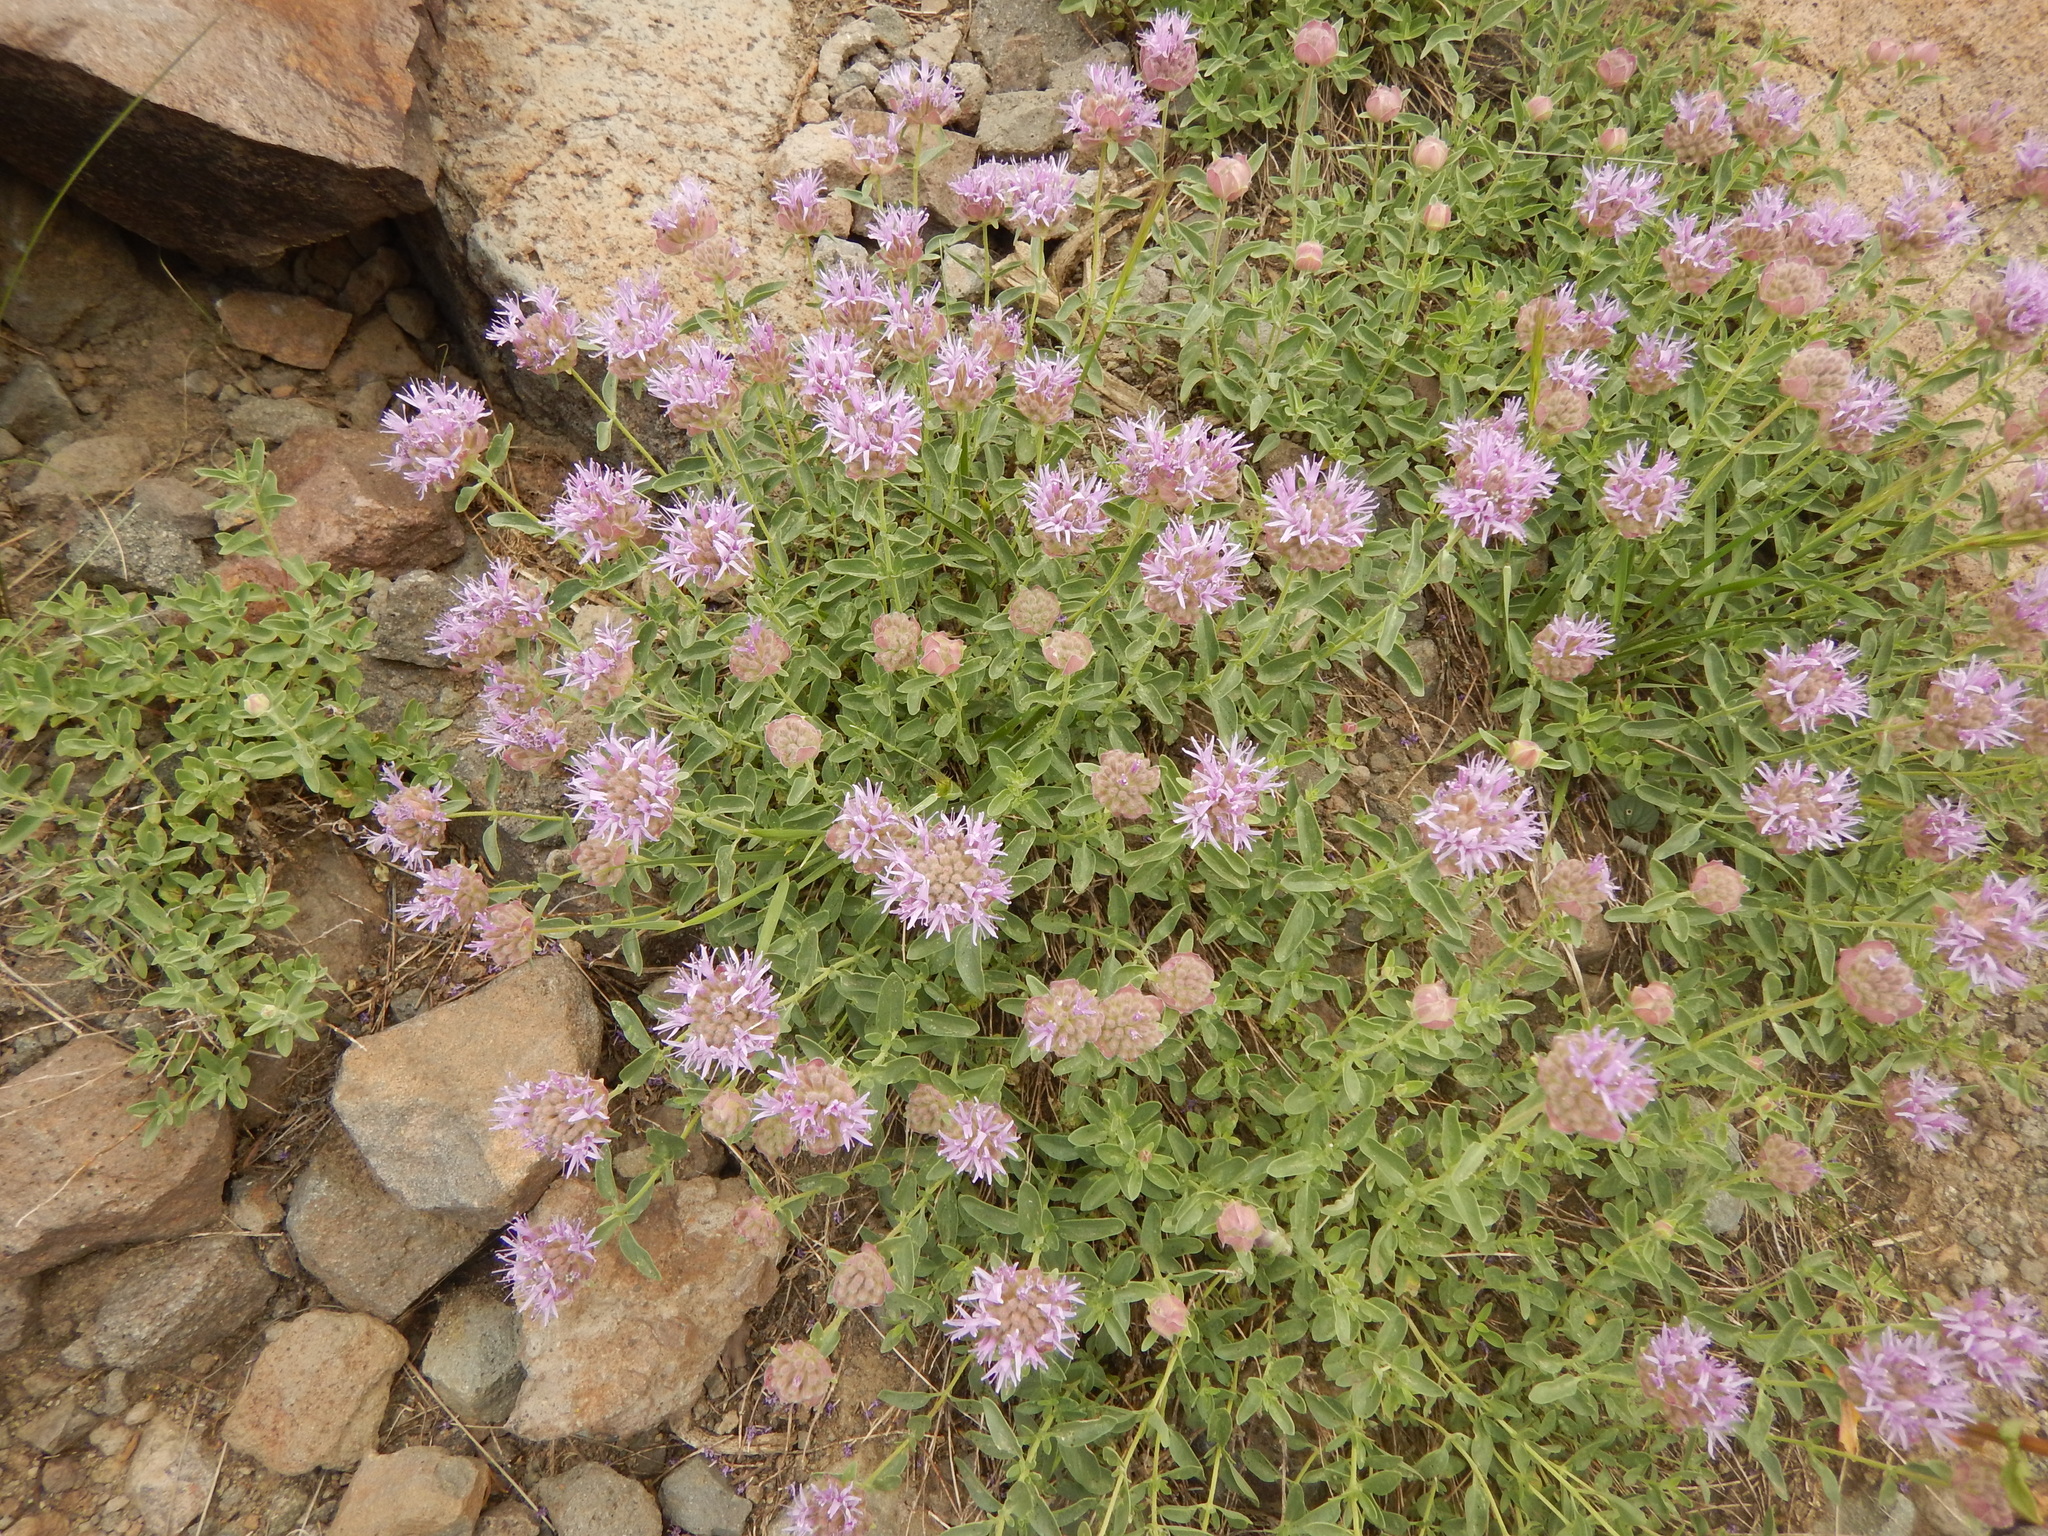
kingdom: Plantae
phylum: Tracheophyta
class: Magnoliopsida
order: Lamiales
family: Lamiaceae
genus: Monardella
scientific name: Monardella odoratissima
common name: Pacific monardella
